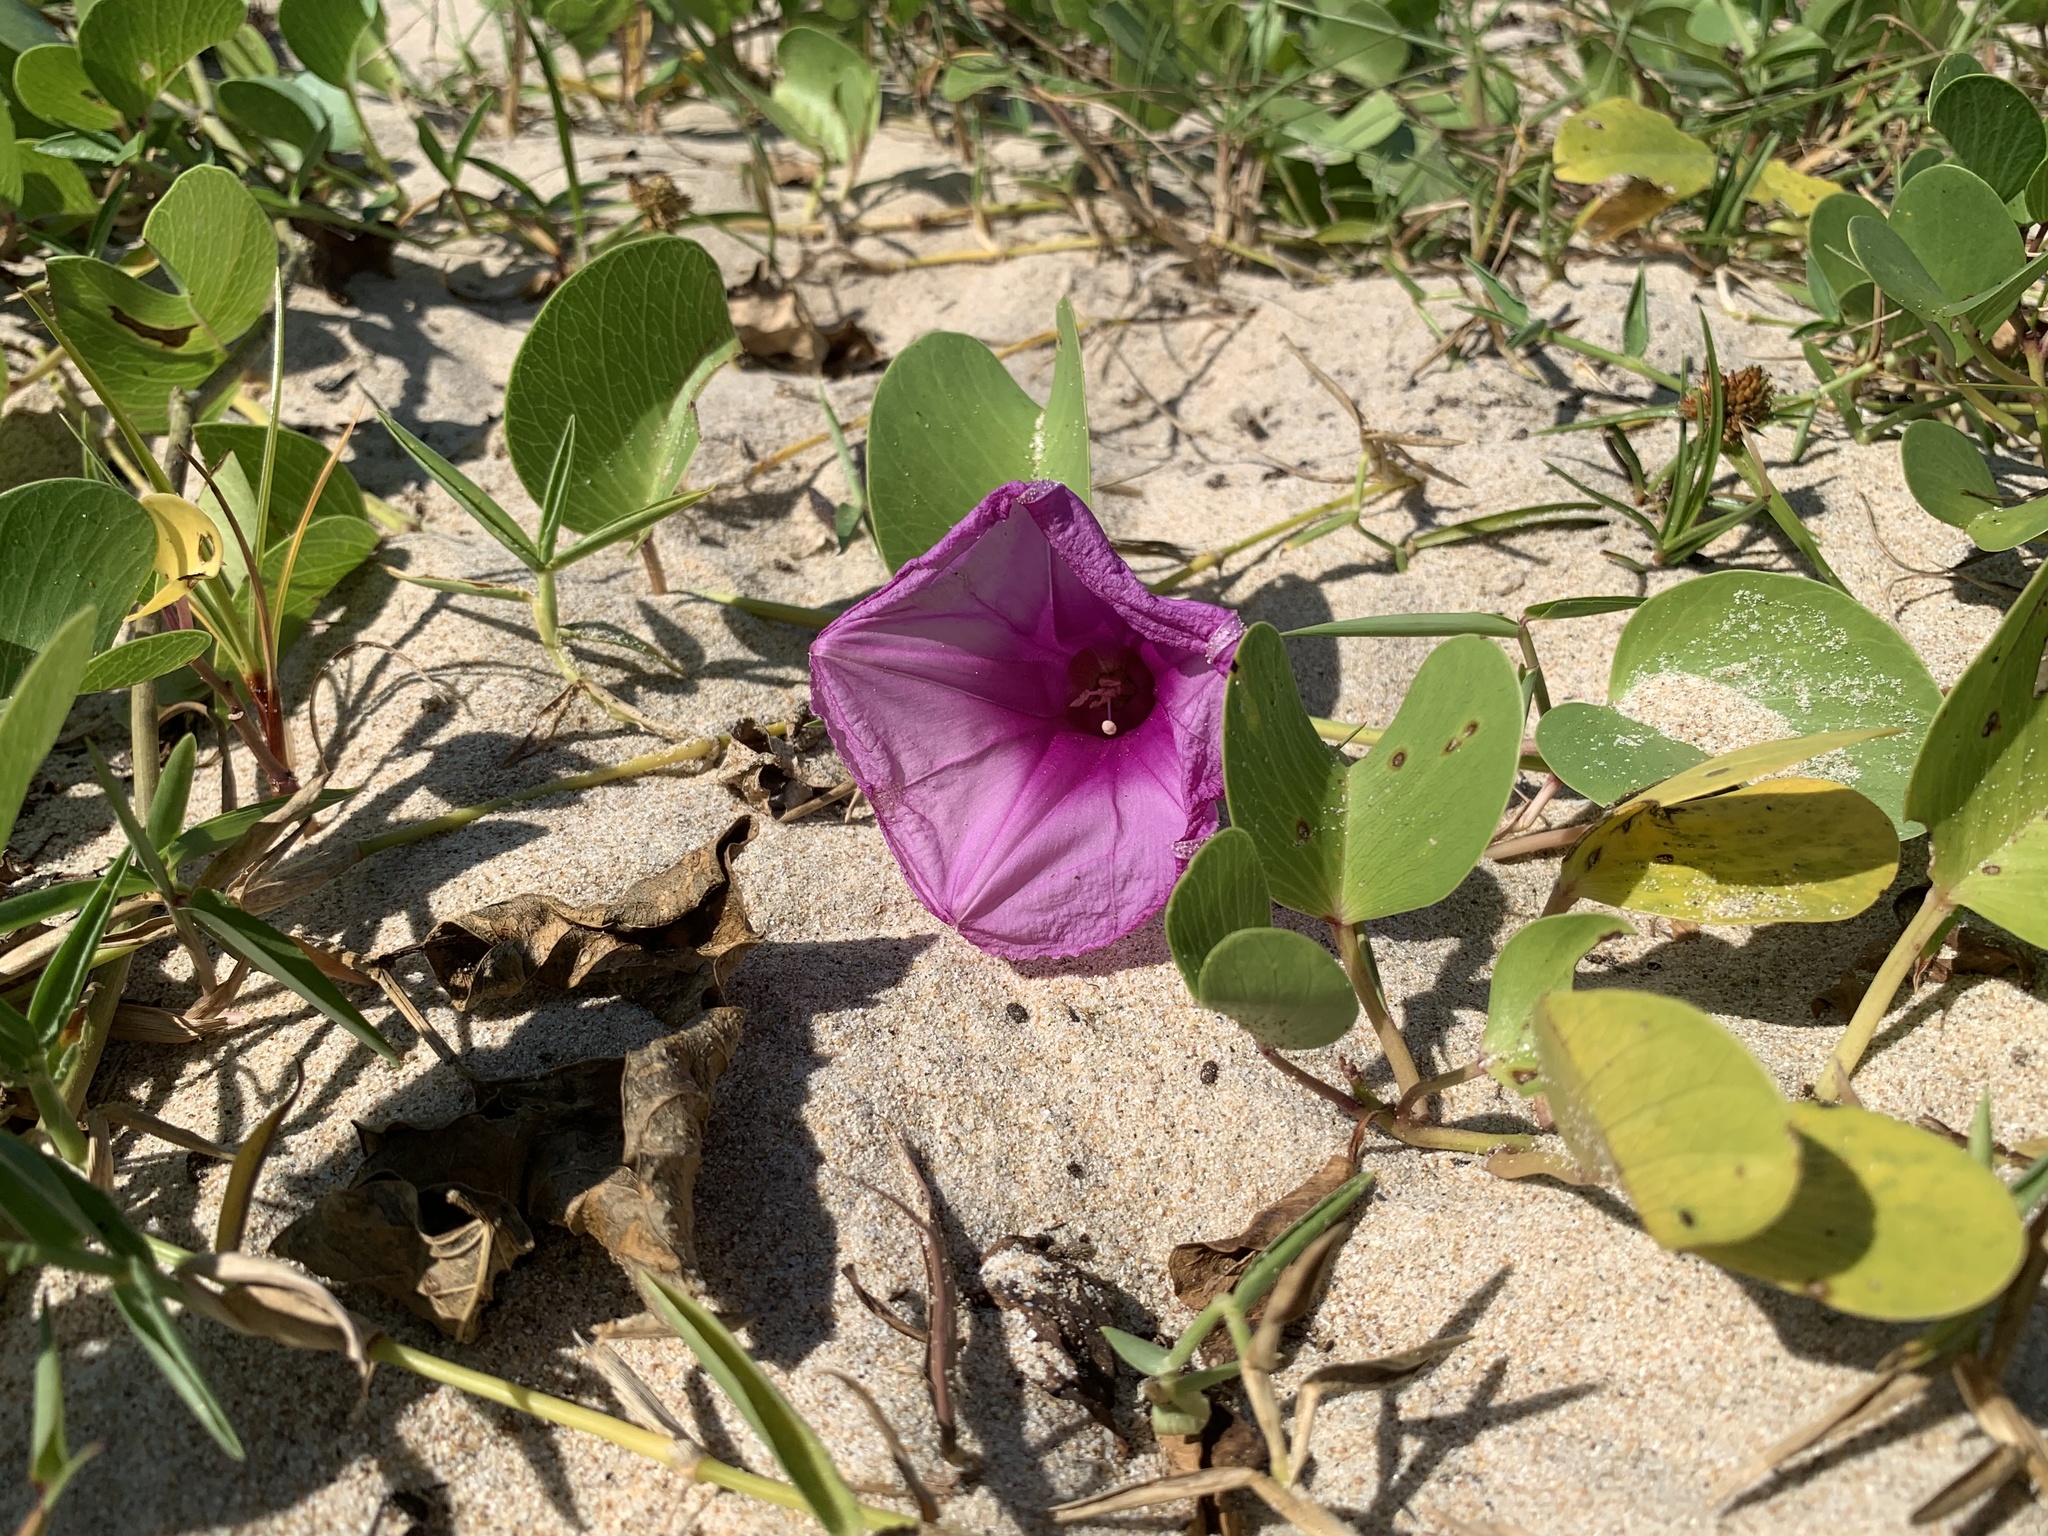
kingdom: Plantae
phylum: Tracheophyta
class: Magnoliopsida
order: Solanales
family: Convolvulaceae
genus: Ipomoea
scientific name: Ipomoea pes-caprae
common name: Beach morning glory
